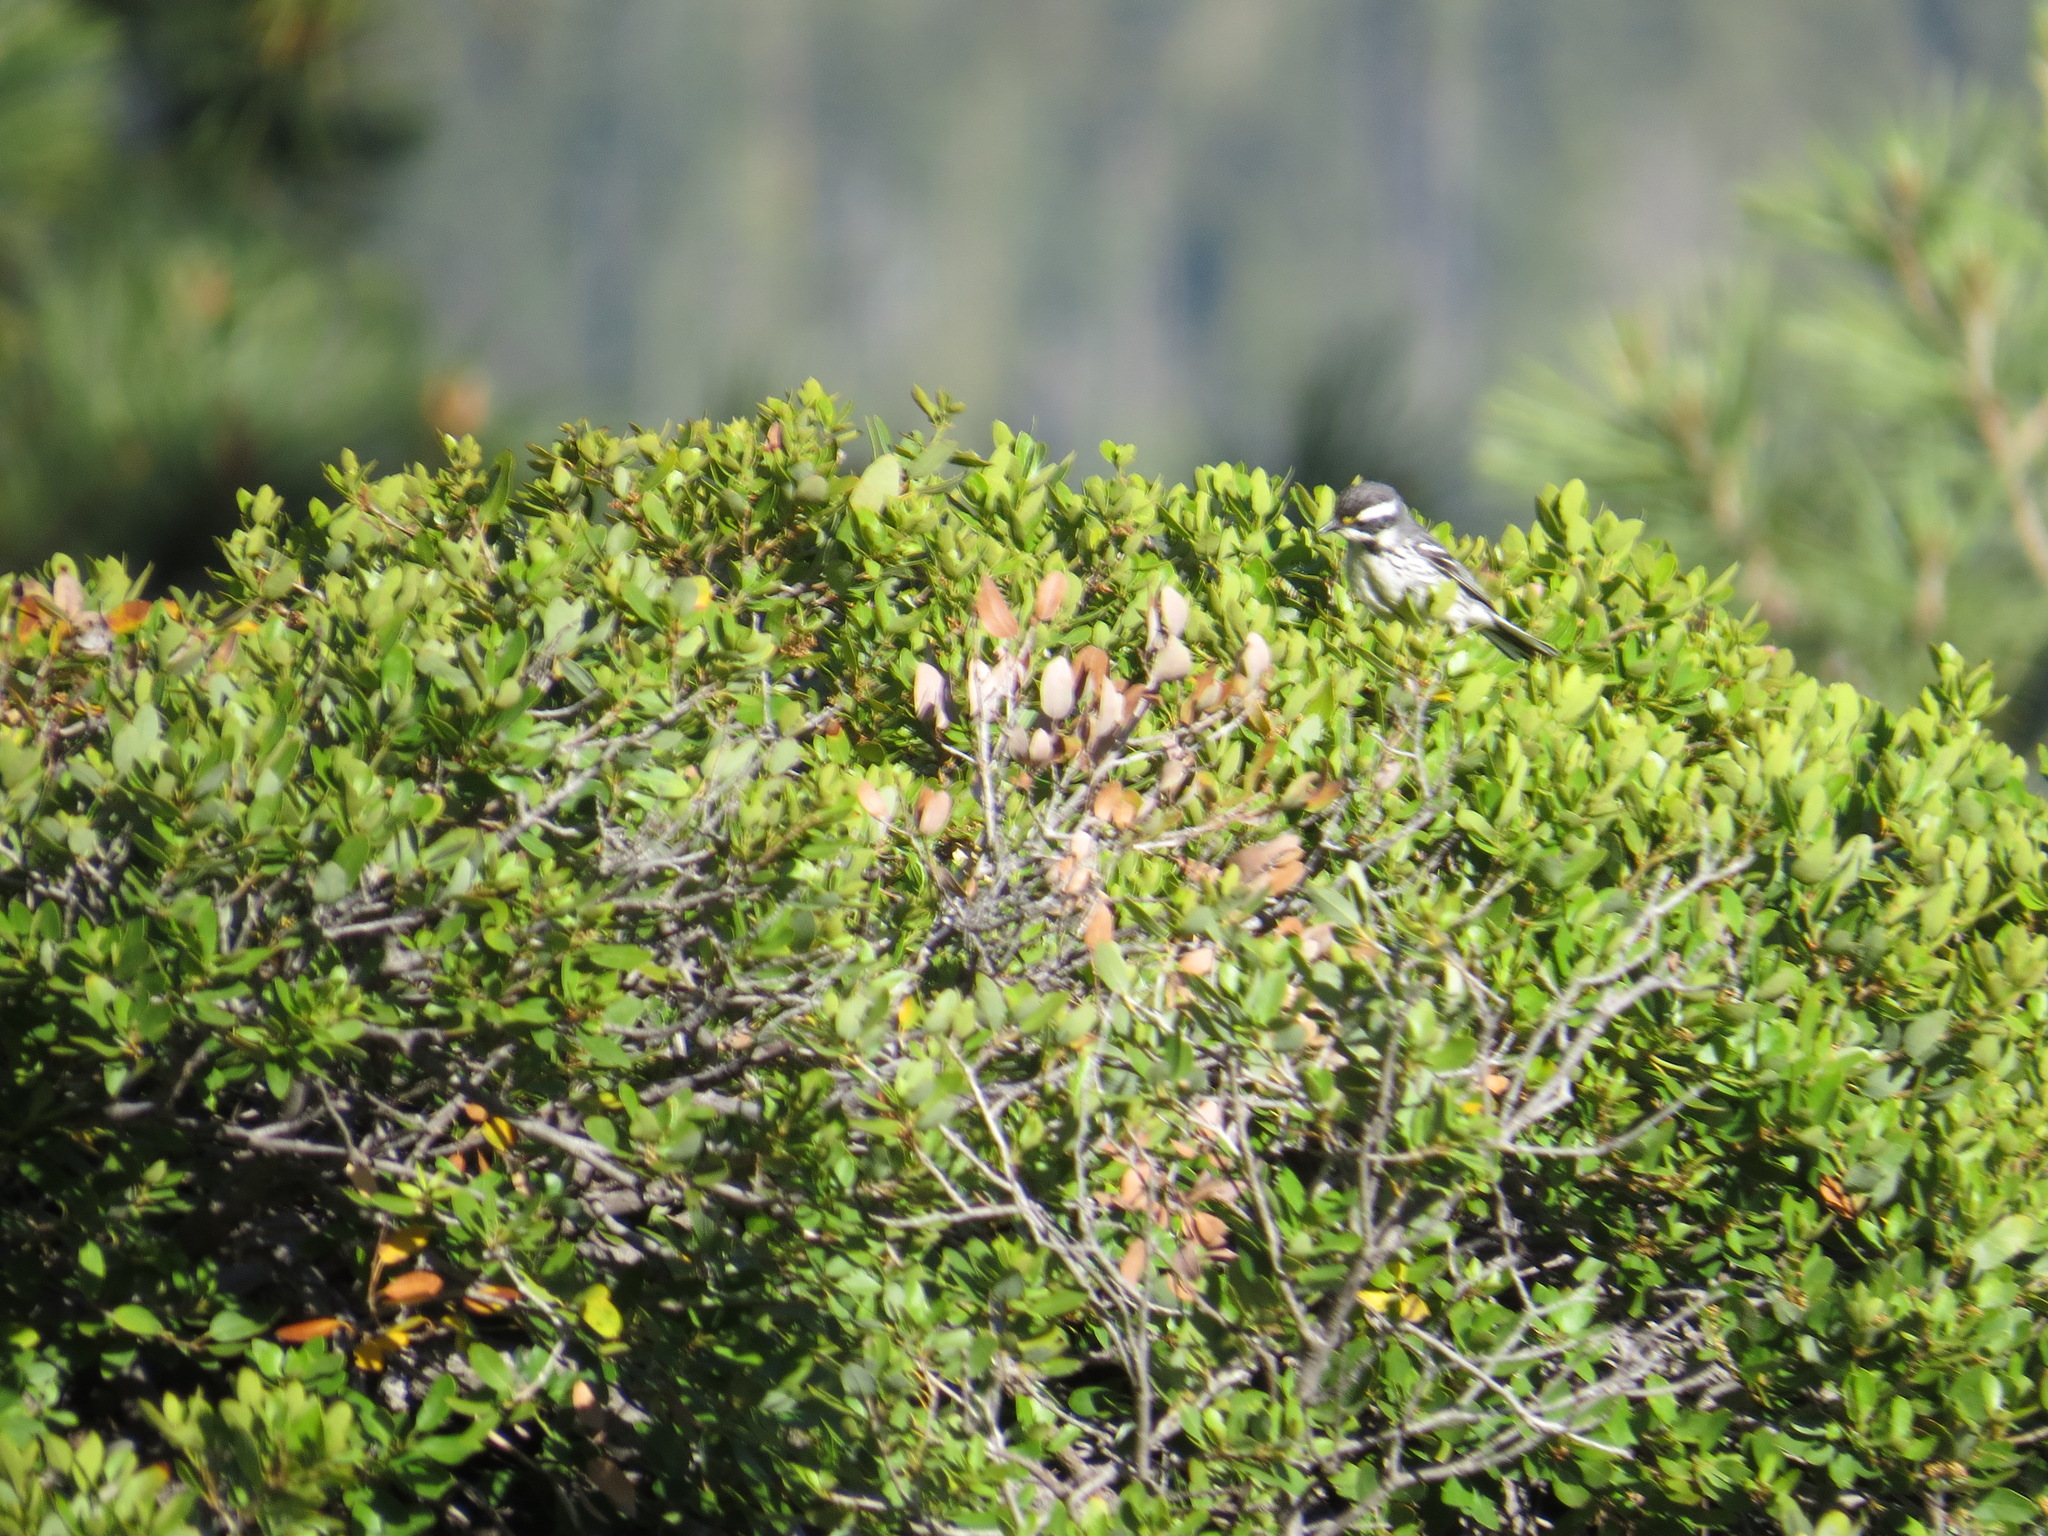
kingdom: Animalia
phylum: Chordata
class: Aves
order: Passeriformes
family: Parulidae
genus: Setophaga
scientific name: Setophaga nigrescens
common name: Black-throated gray warbler
